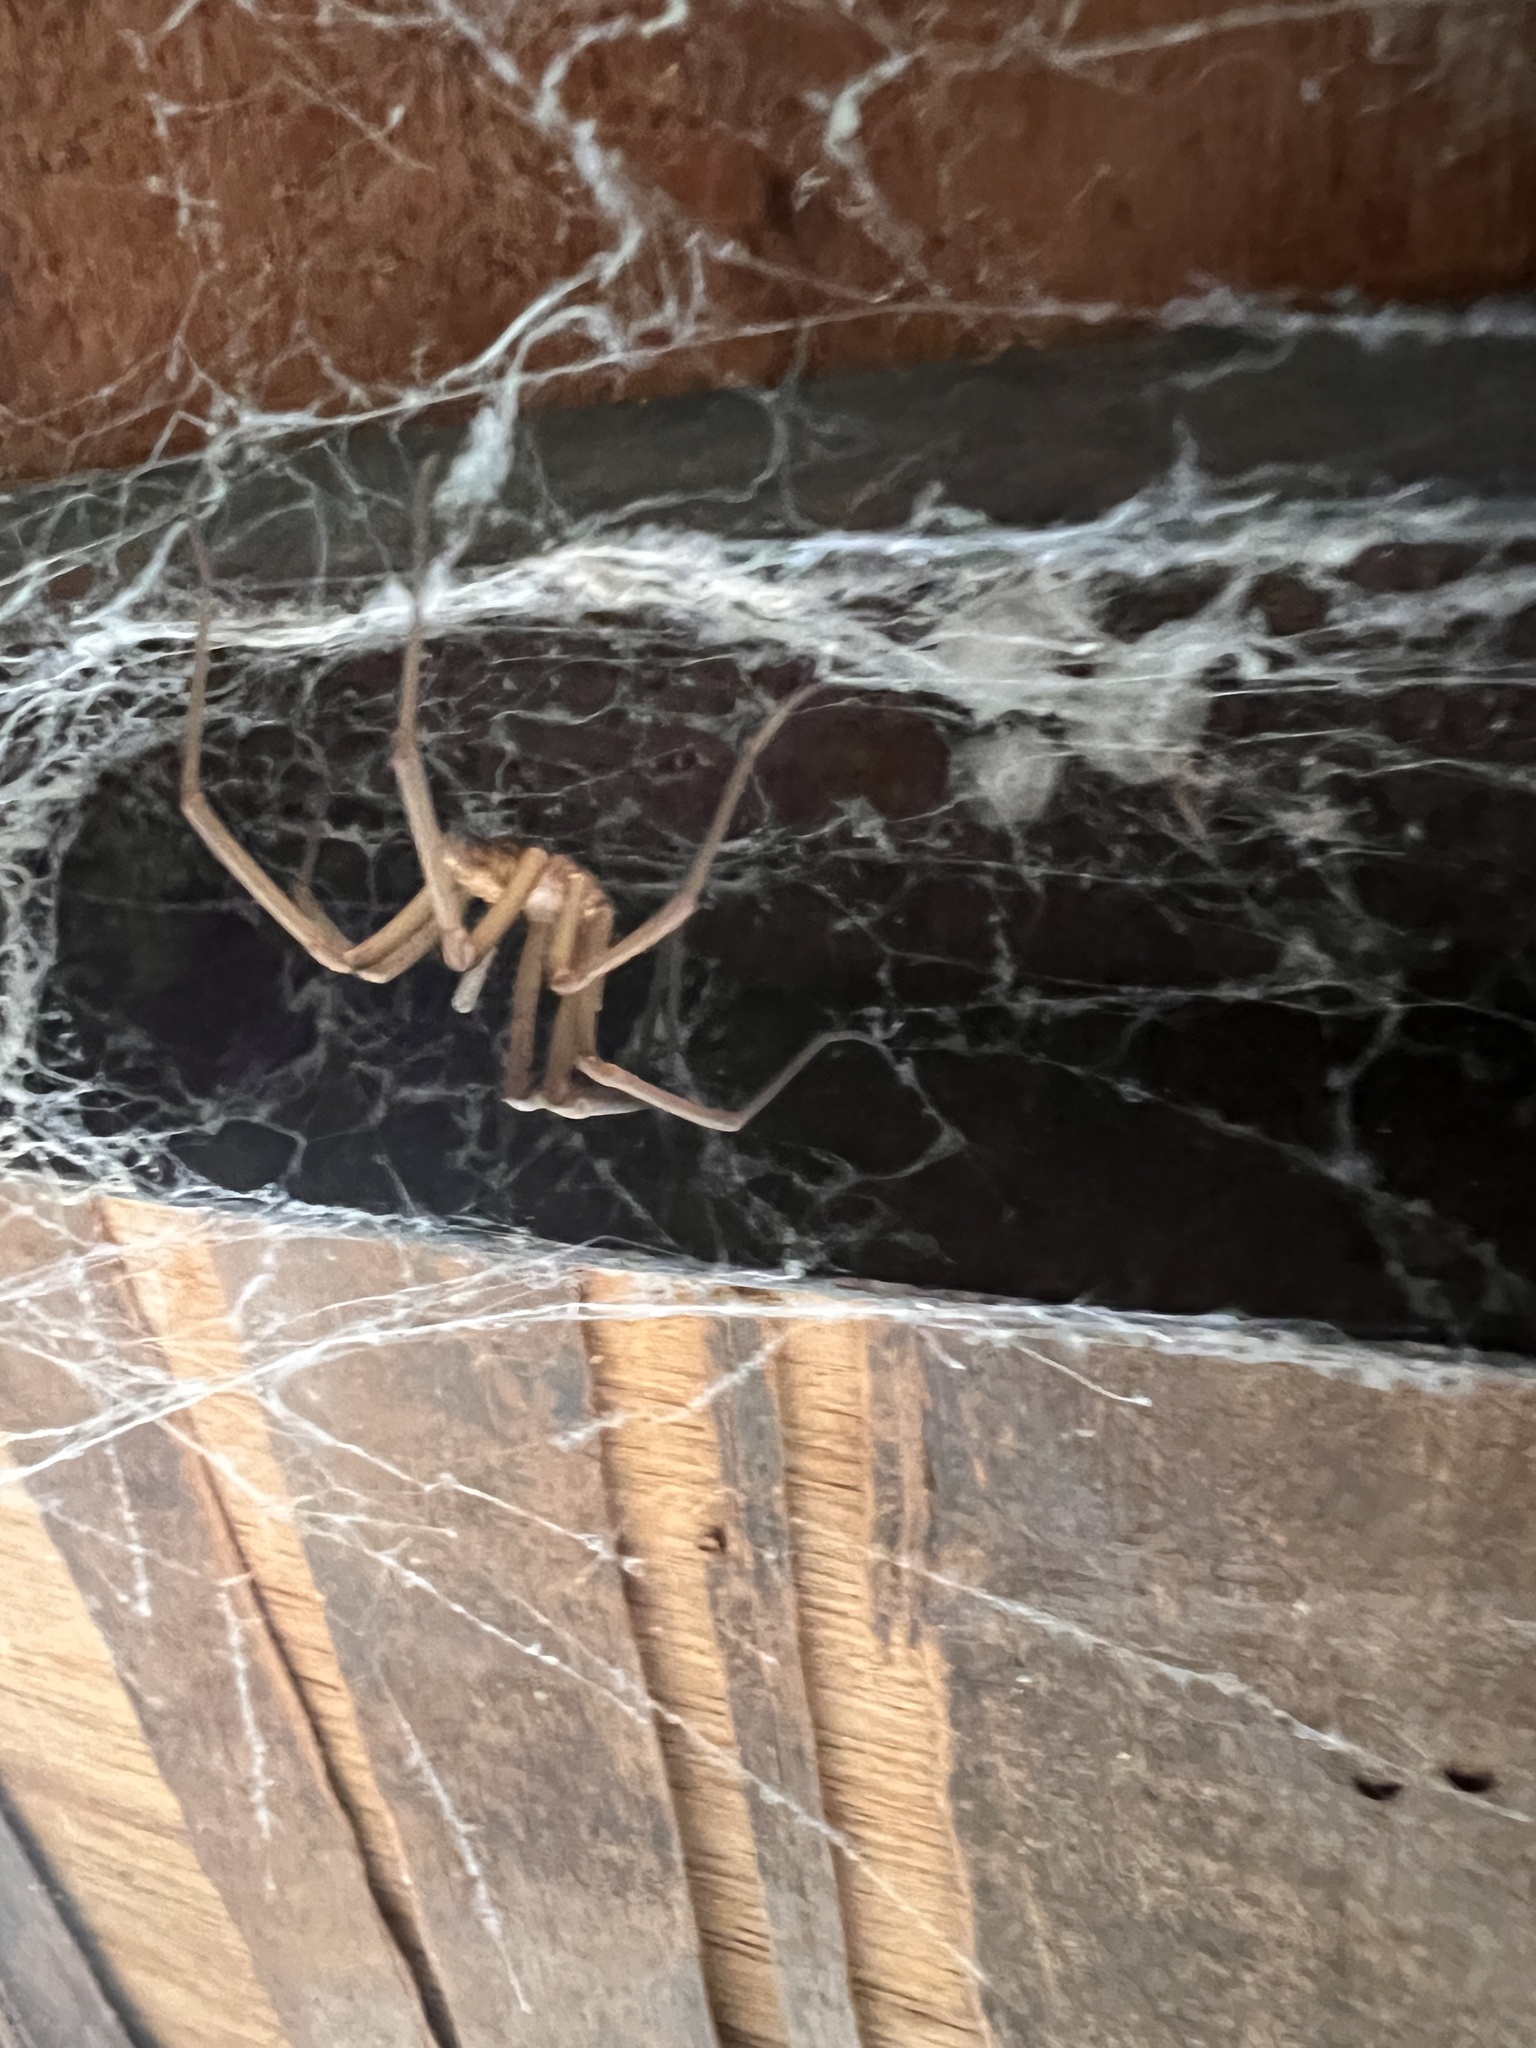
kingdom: Animalia
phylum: Arthropoda
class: Arachnida
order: Araneae
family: Filistatidae
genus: Kukulcania
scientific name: Kukulcania hibernalis
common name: Crevice weaver
